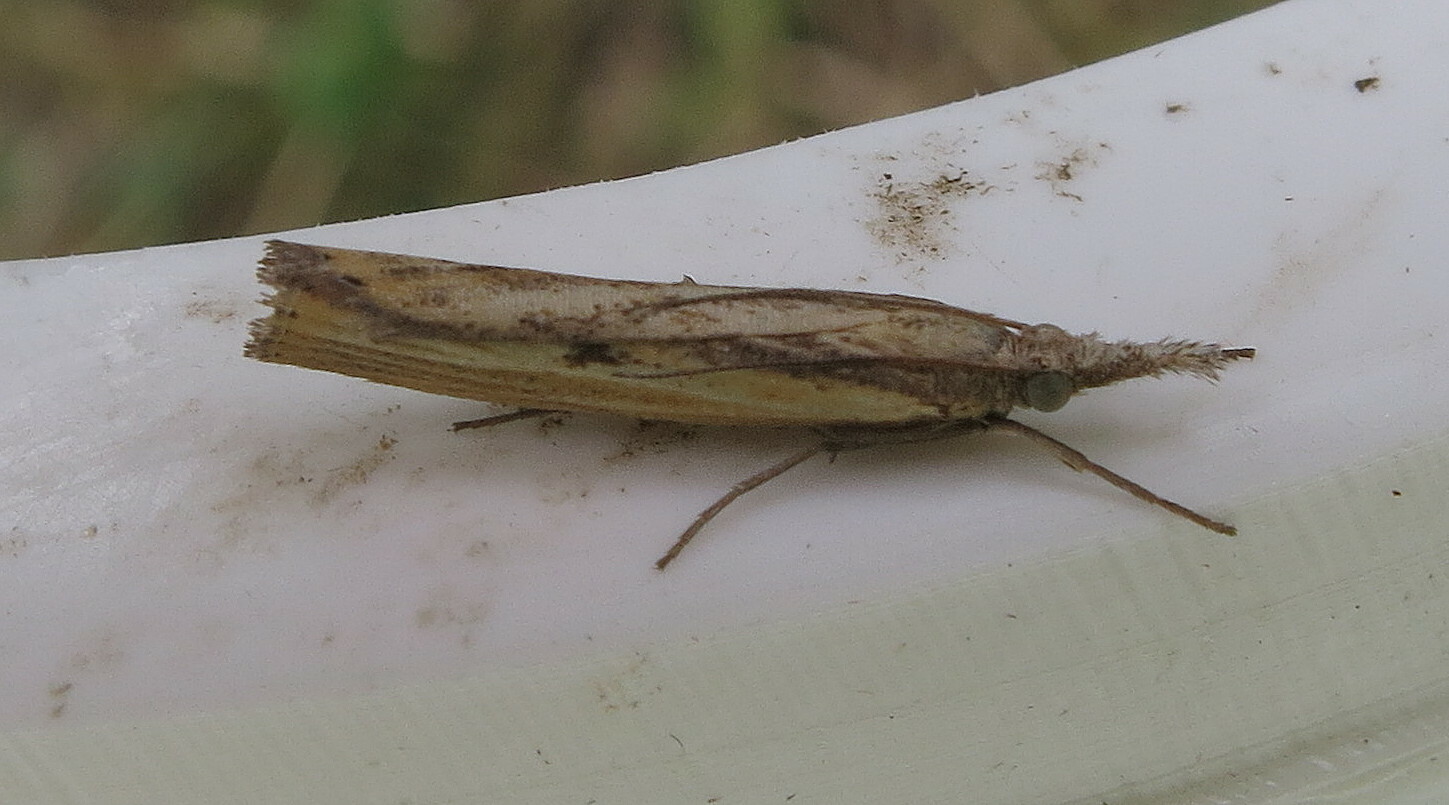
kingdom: Animalia
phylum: Arthropoda
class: Insecta
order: Lepidoptera
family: Crambidae
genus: Agriphila
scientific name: Agriphila inquinatella
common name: Barred grass-veneer
